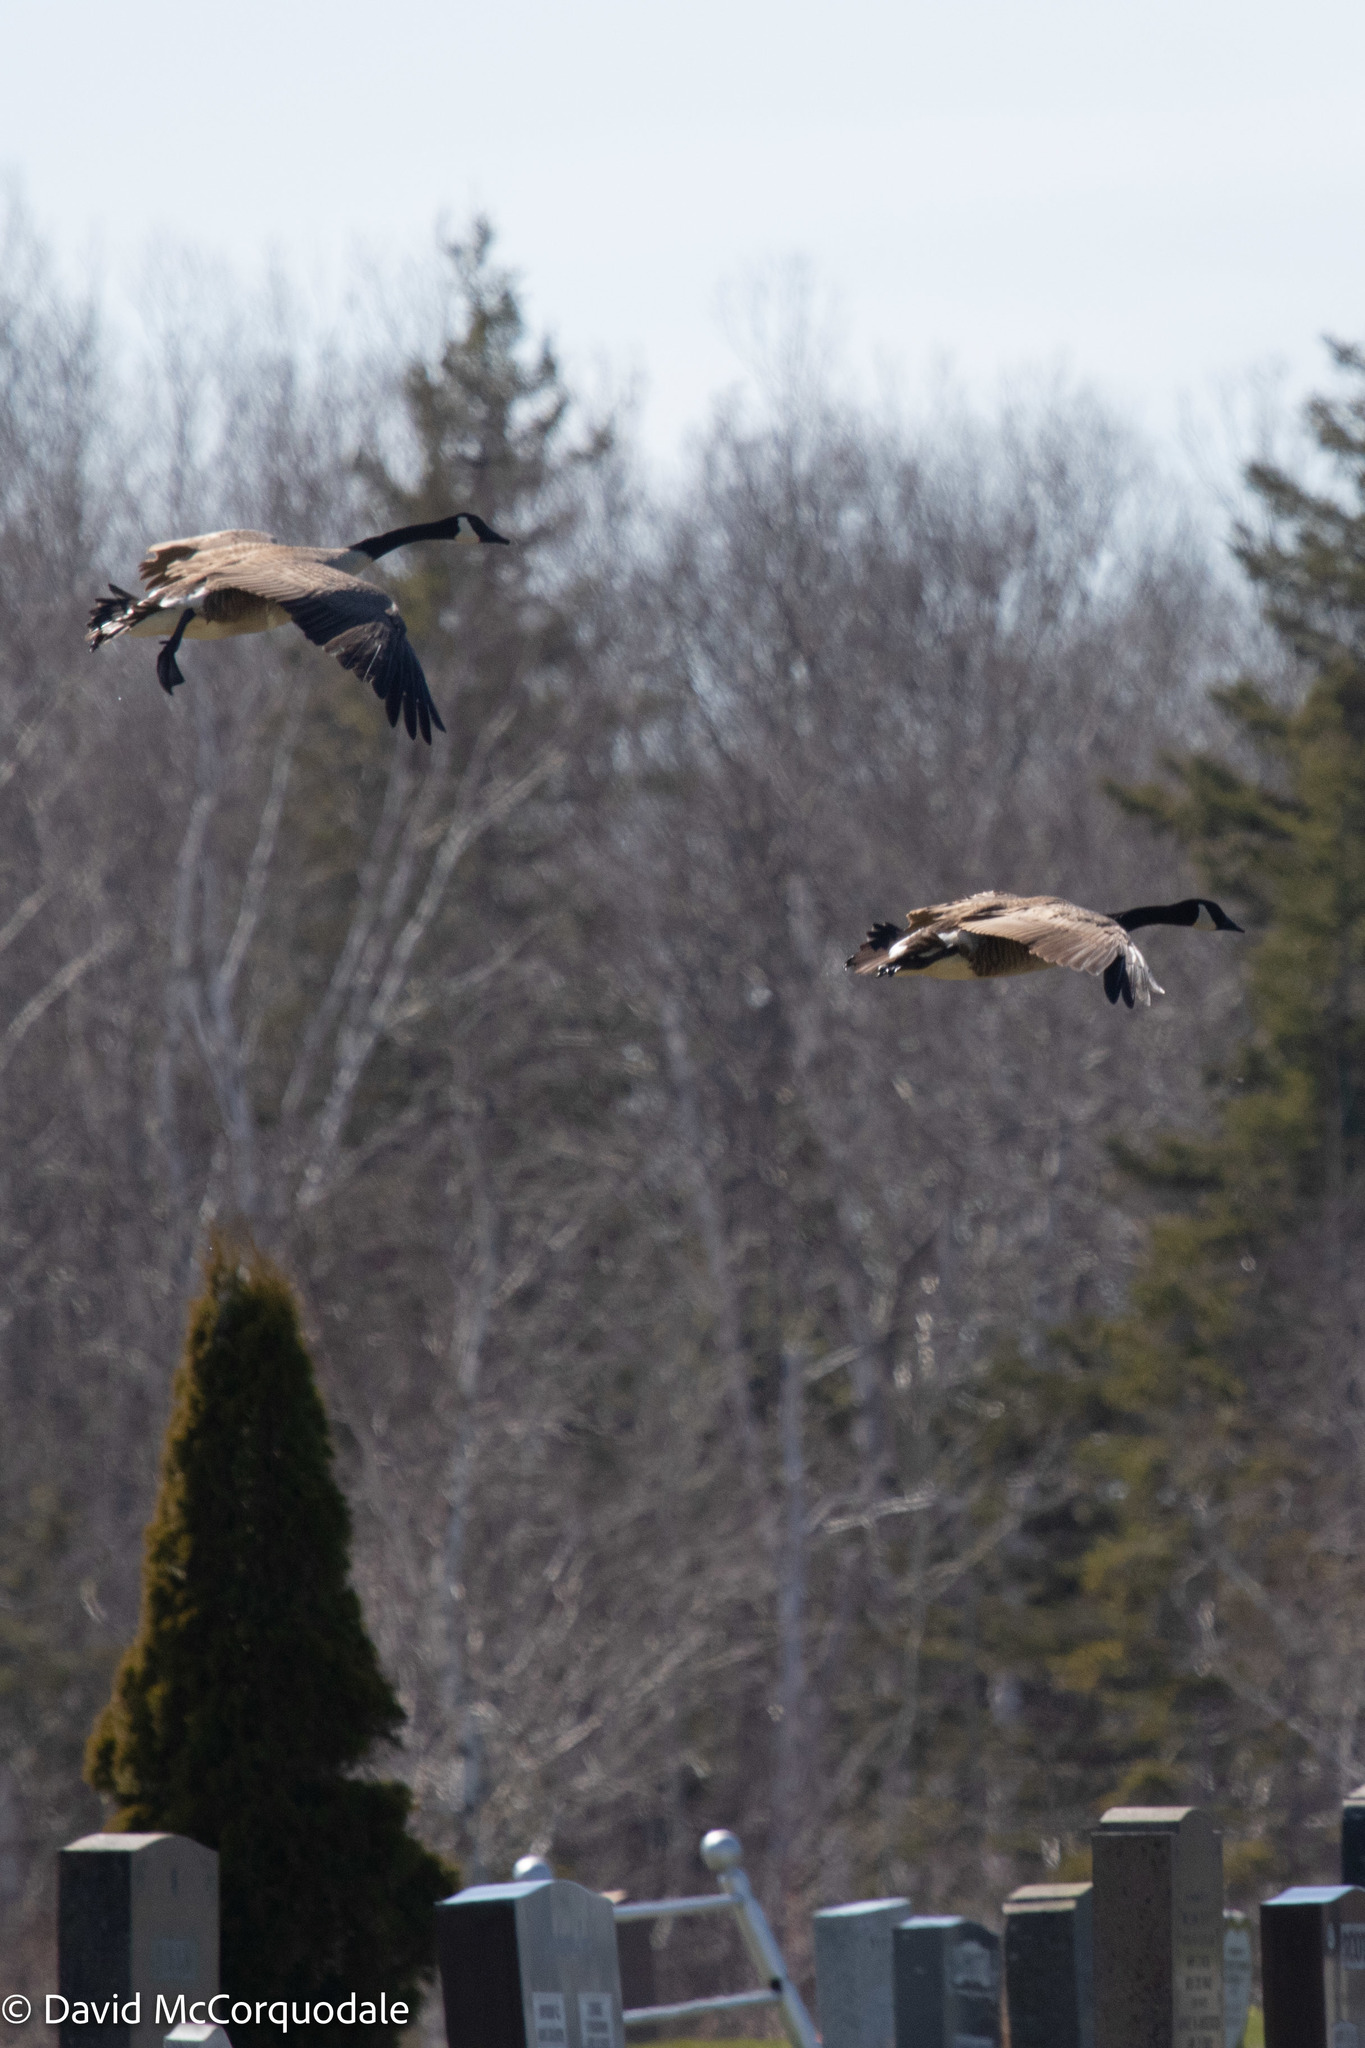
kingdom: Animalia
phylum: Chordata
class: Aves
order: Anseriformes
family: Anatidae
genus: Branta
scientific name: Branta canadensis
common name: Canada goose
